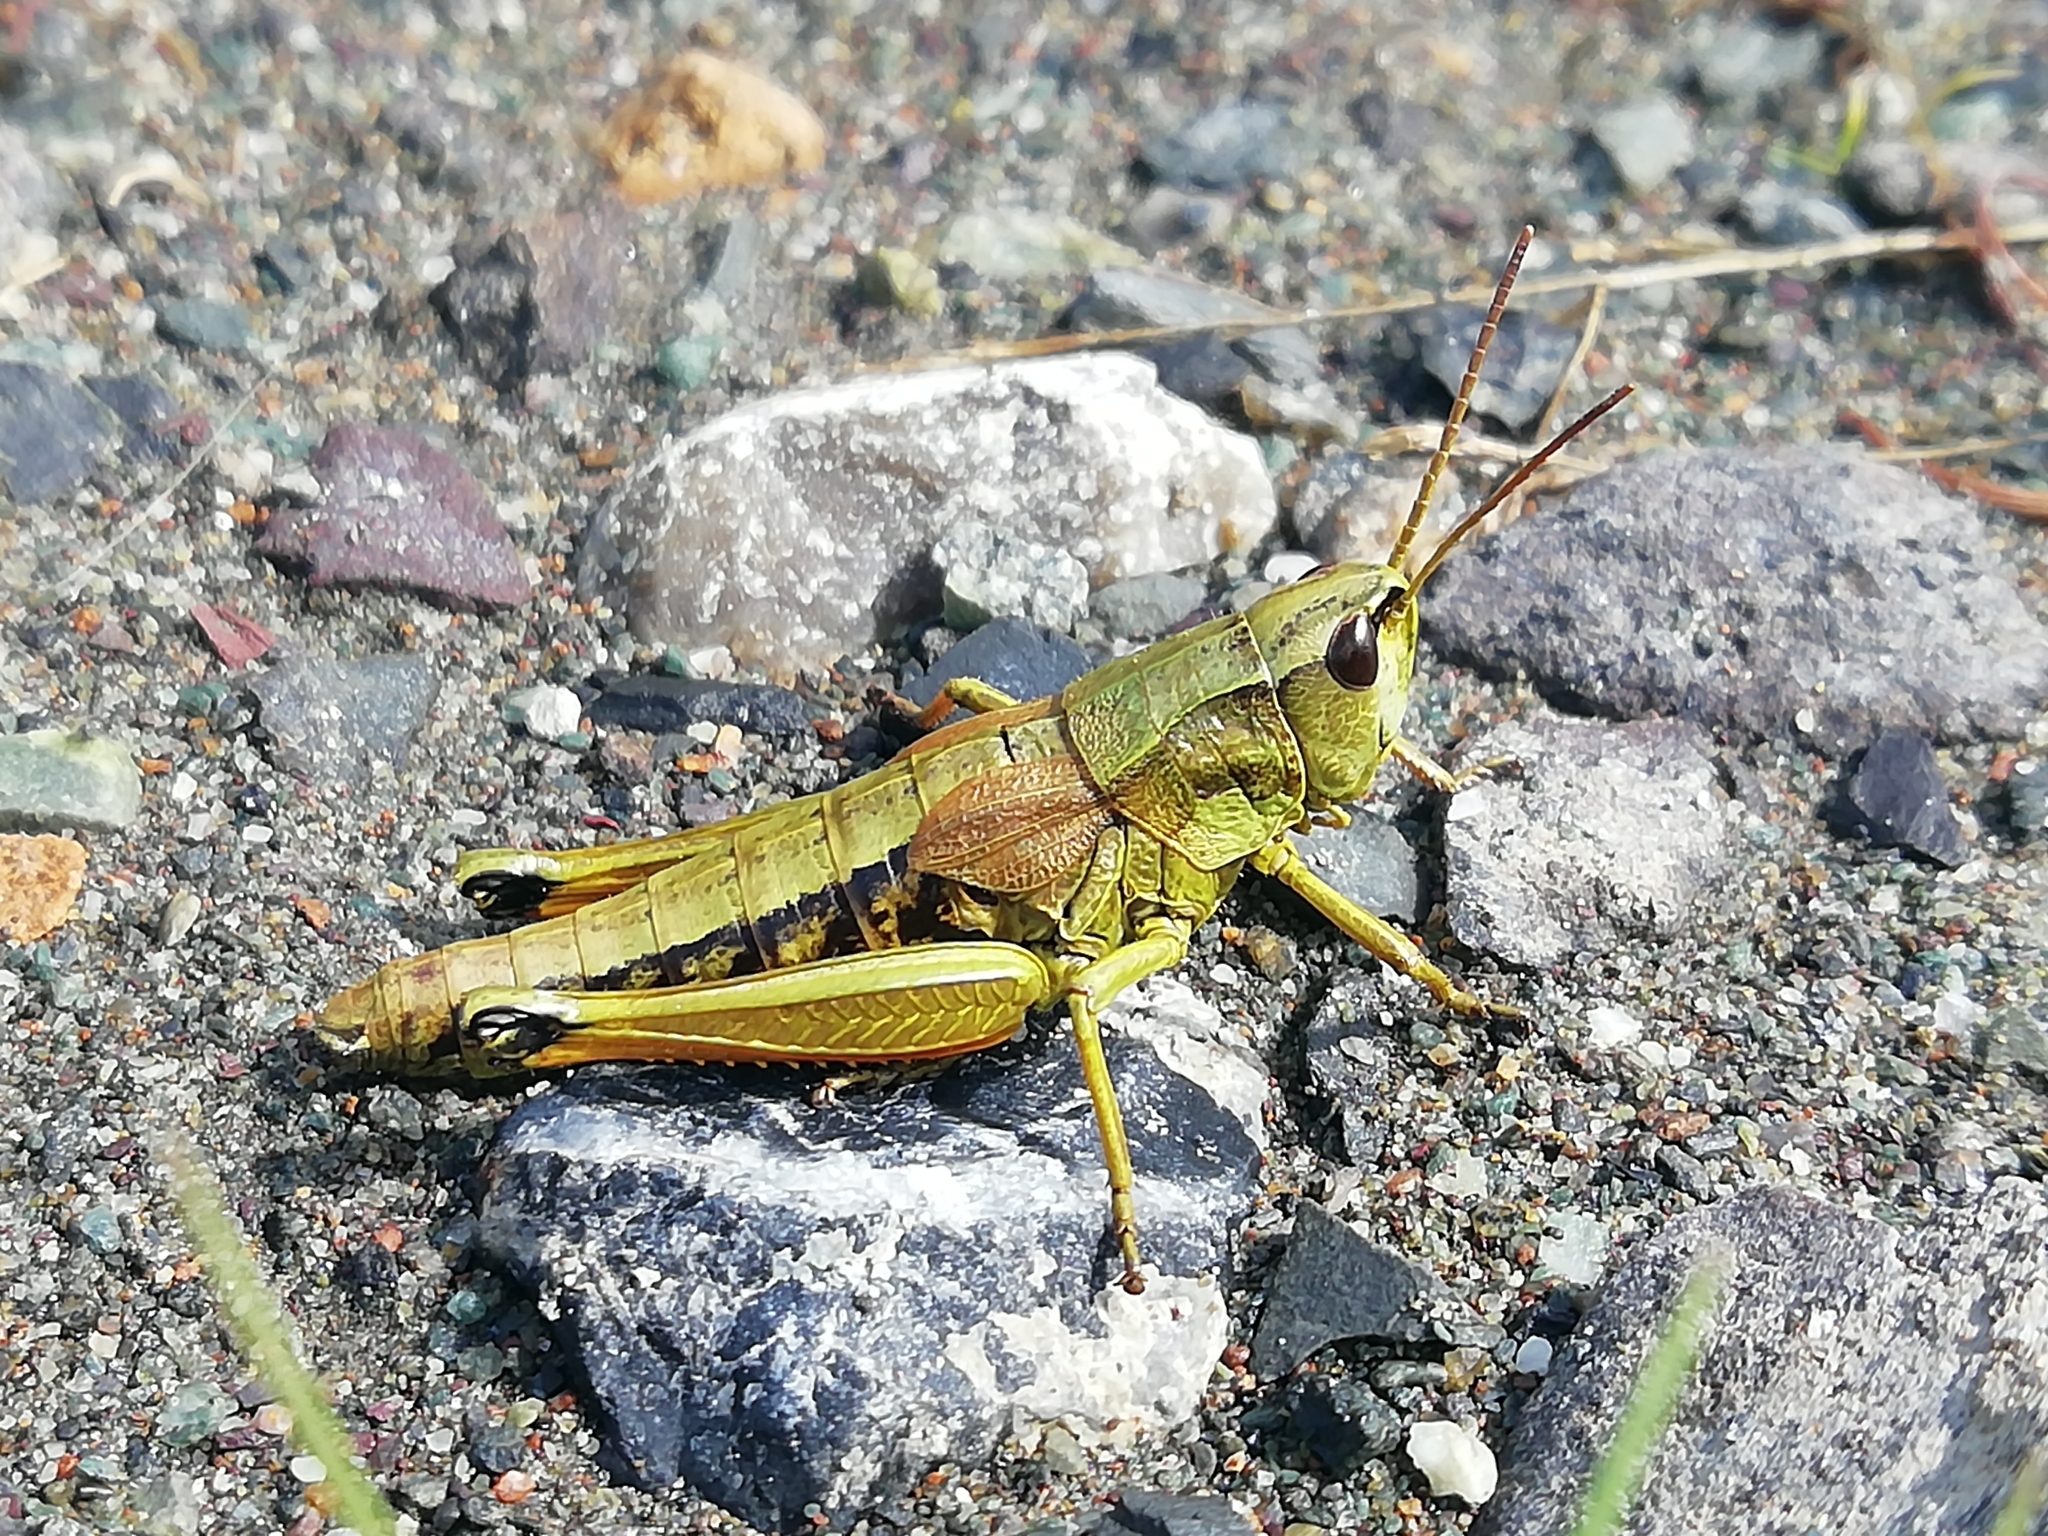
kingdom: Animalia
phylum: Arthropoda
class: Insecta
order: Orthoptera
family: Acrididae
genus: Podismopsis
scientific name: Podismopsis poppiusi
